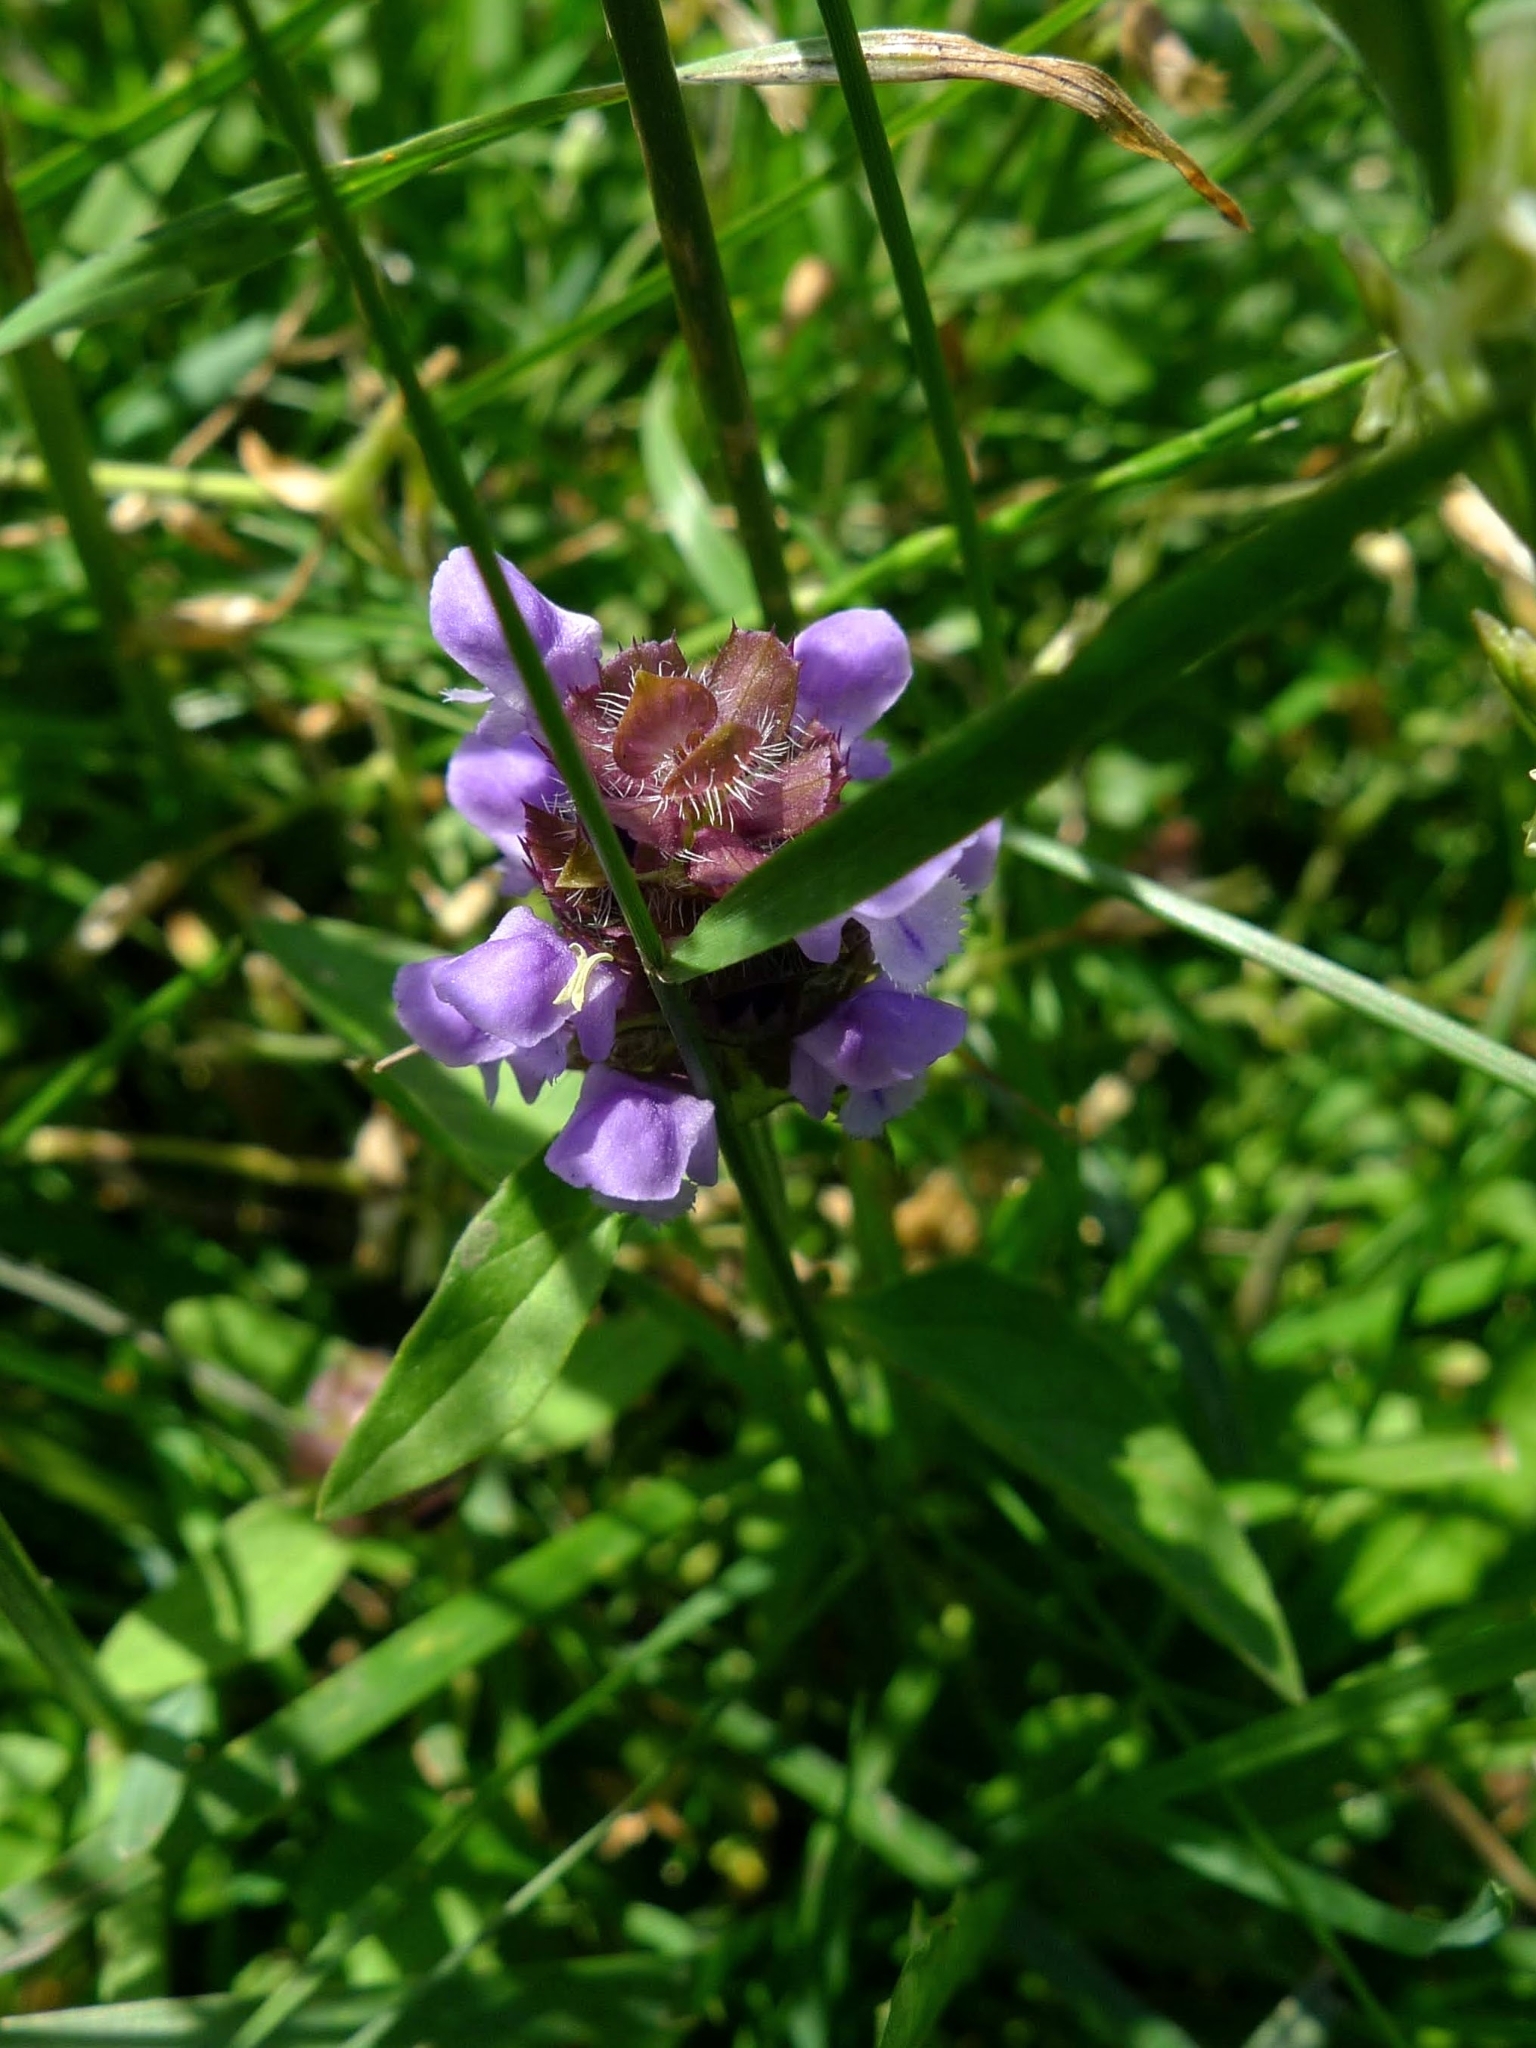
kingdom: Plantae
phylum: Tracheophyta
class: Magnoliopsida
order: Lamiales
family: Lamiaceae
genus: Prunella
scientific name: Prunella vulgaris
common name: Heal-all
